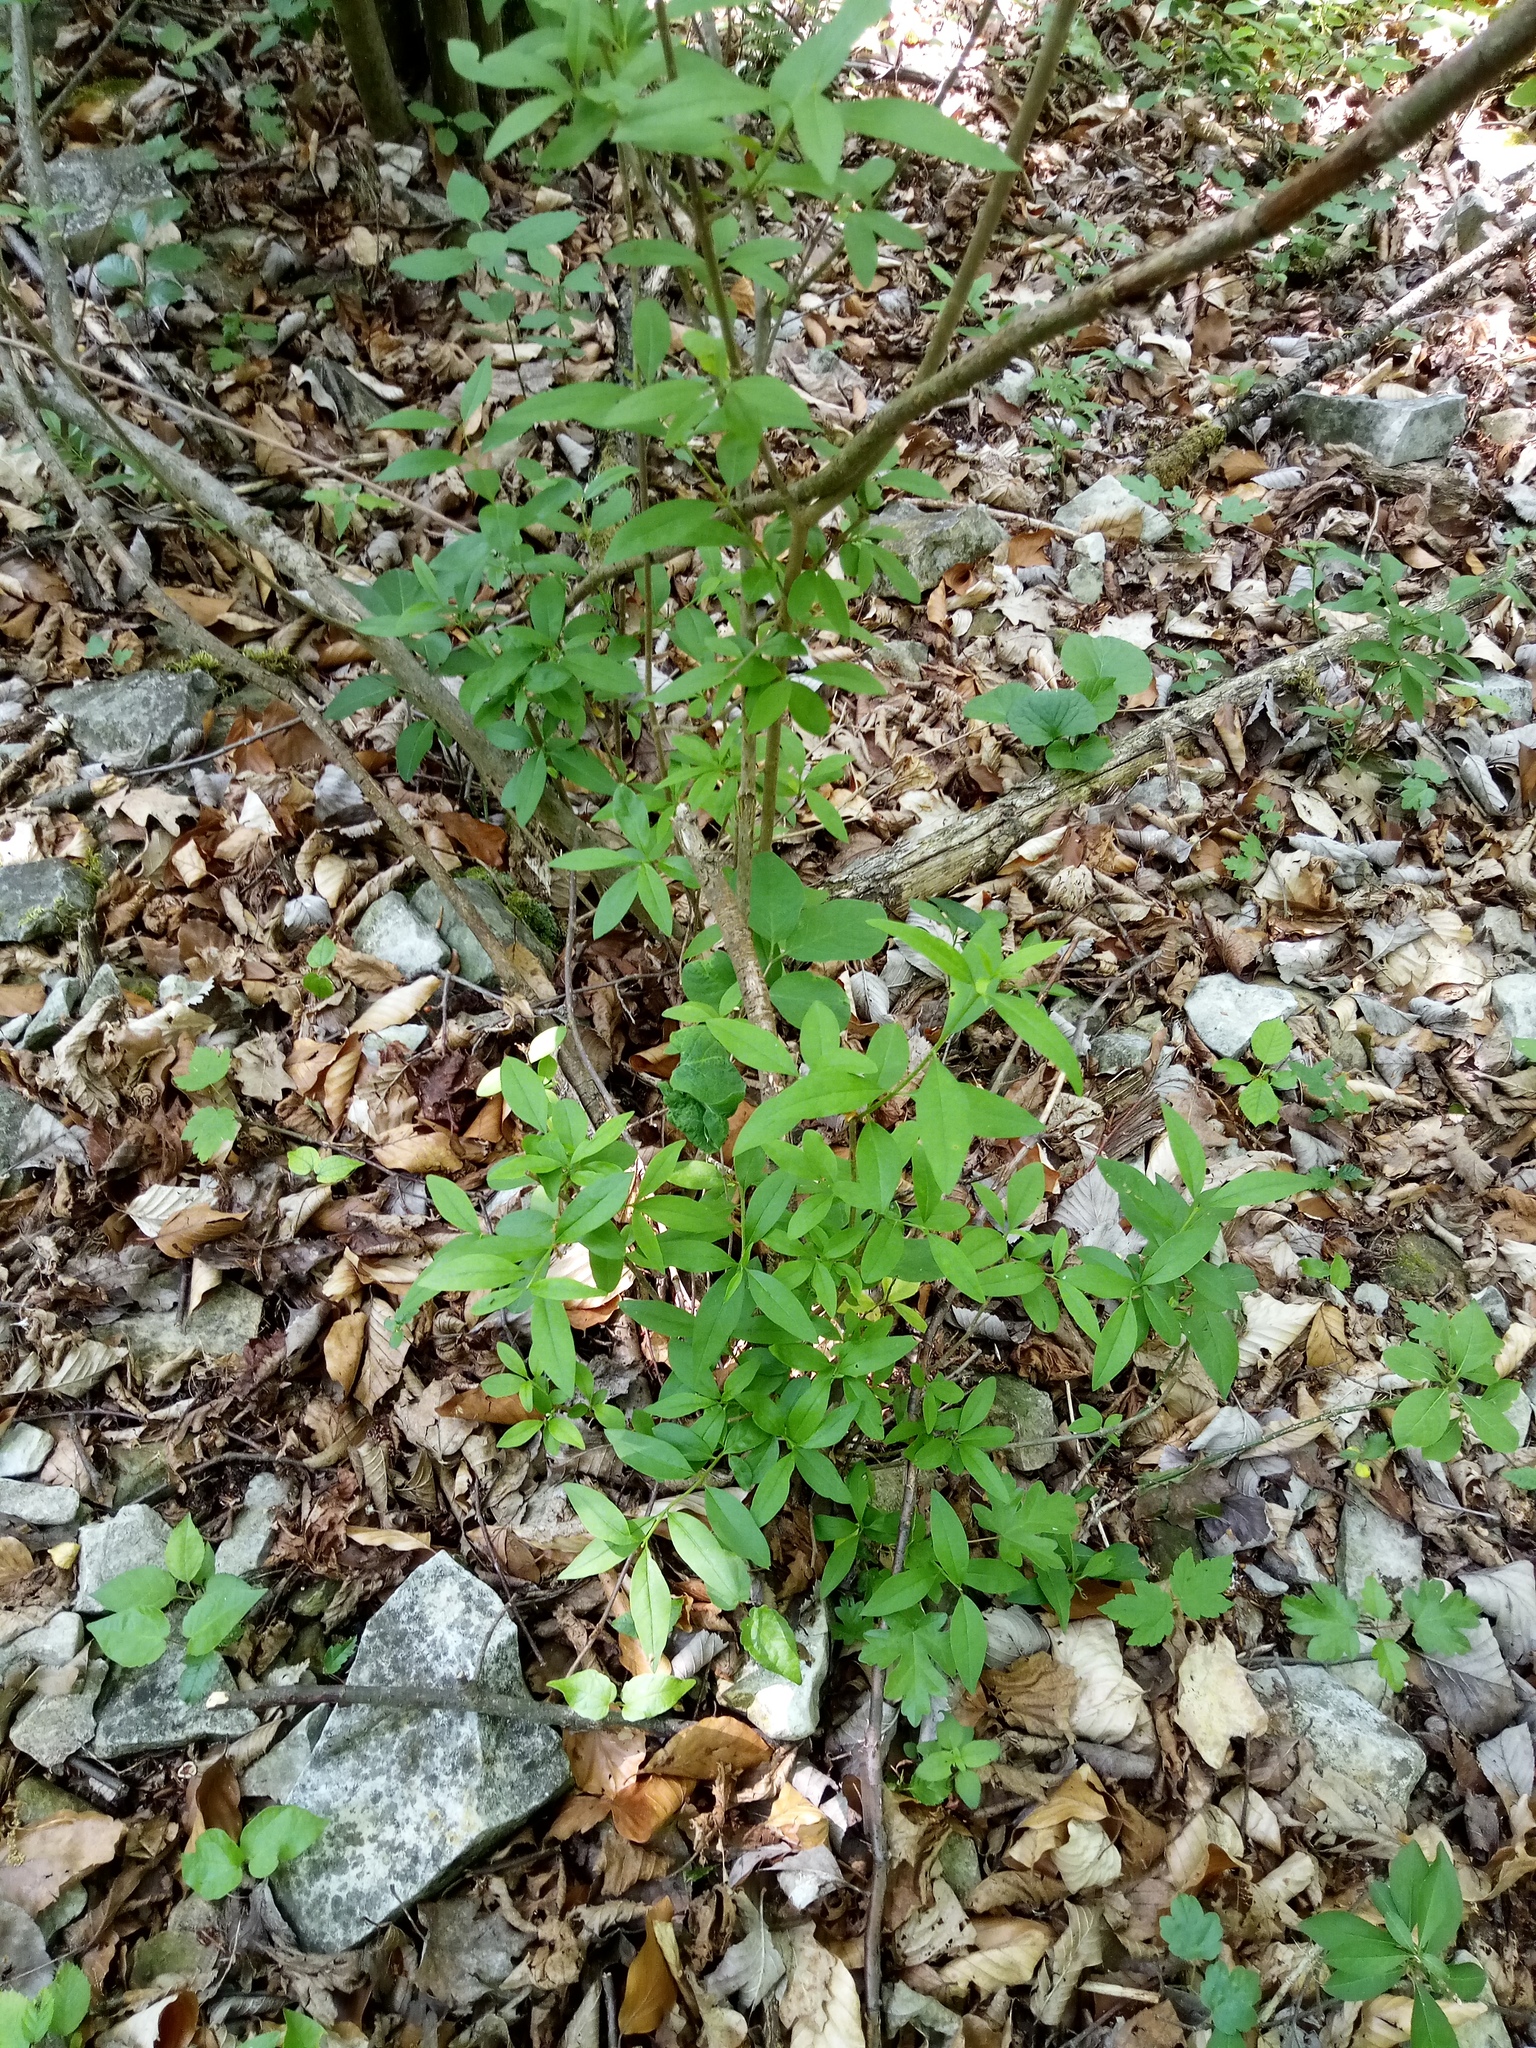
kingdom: Plantae
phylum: Tracheophyta
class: Magnoliopsida
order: Lamiales
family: Oleaceae
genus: Ligustrum
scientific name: Ligustrum vulgare
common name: Wild privet
